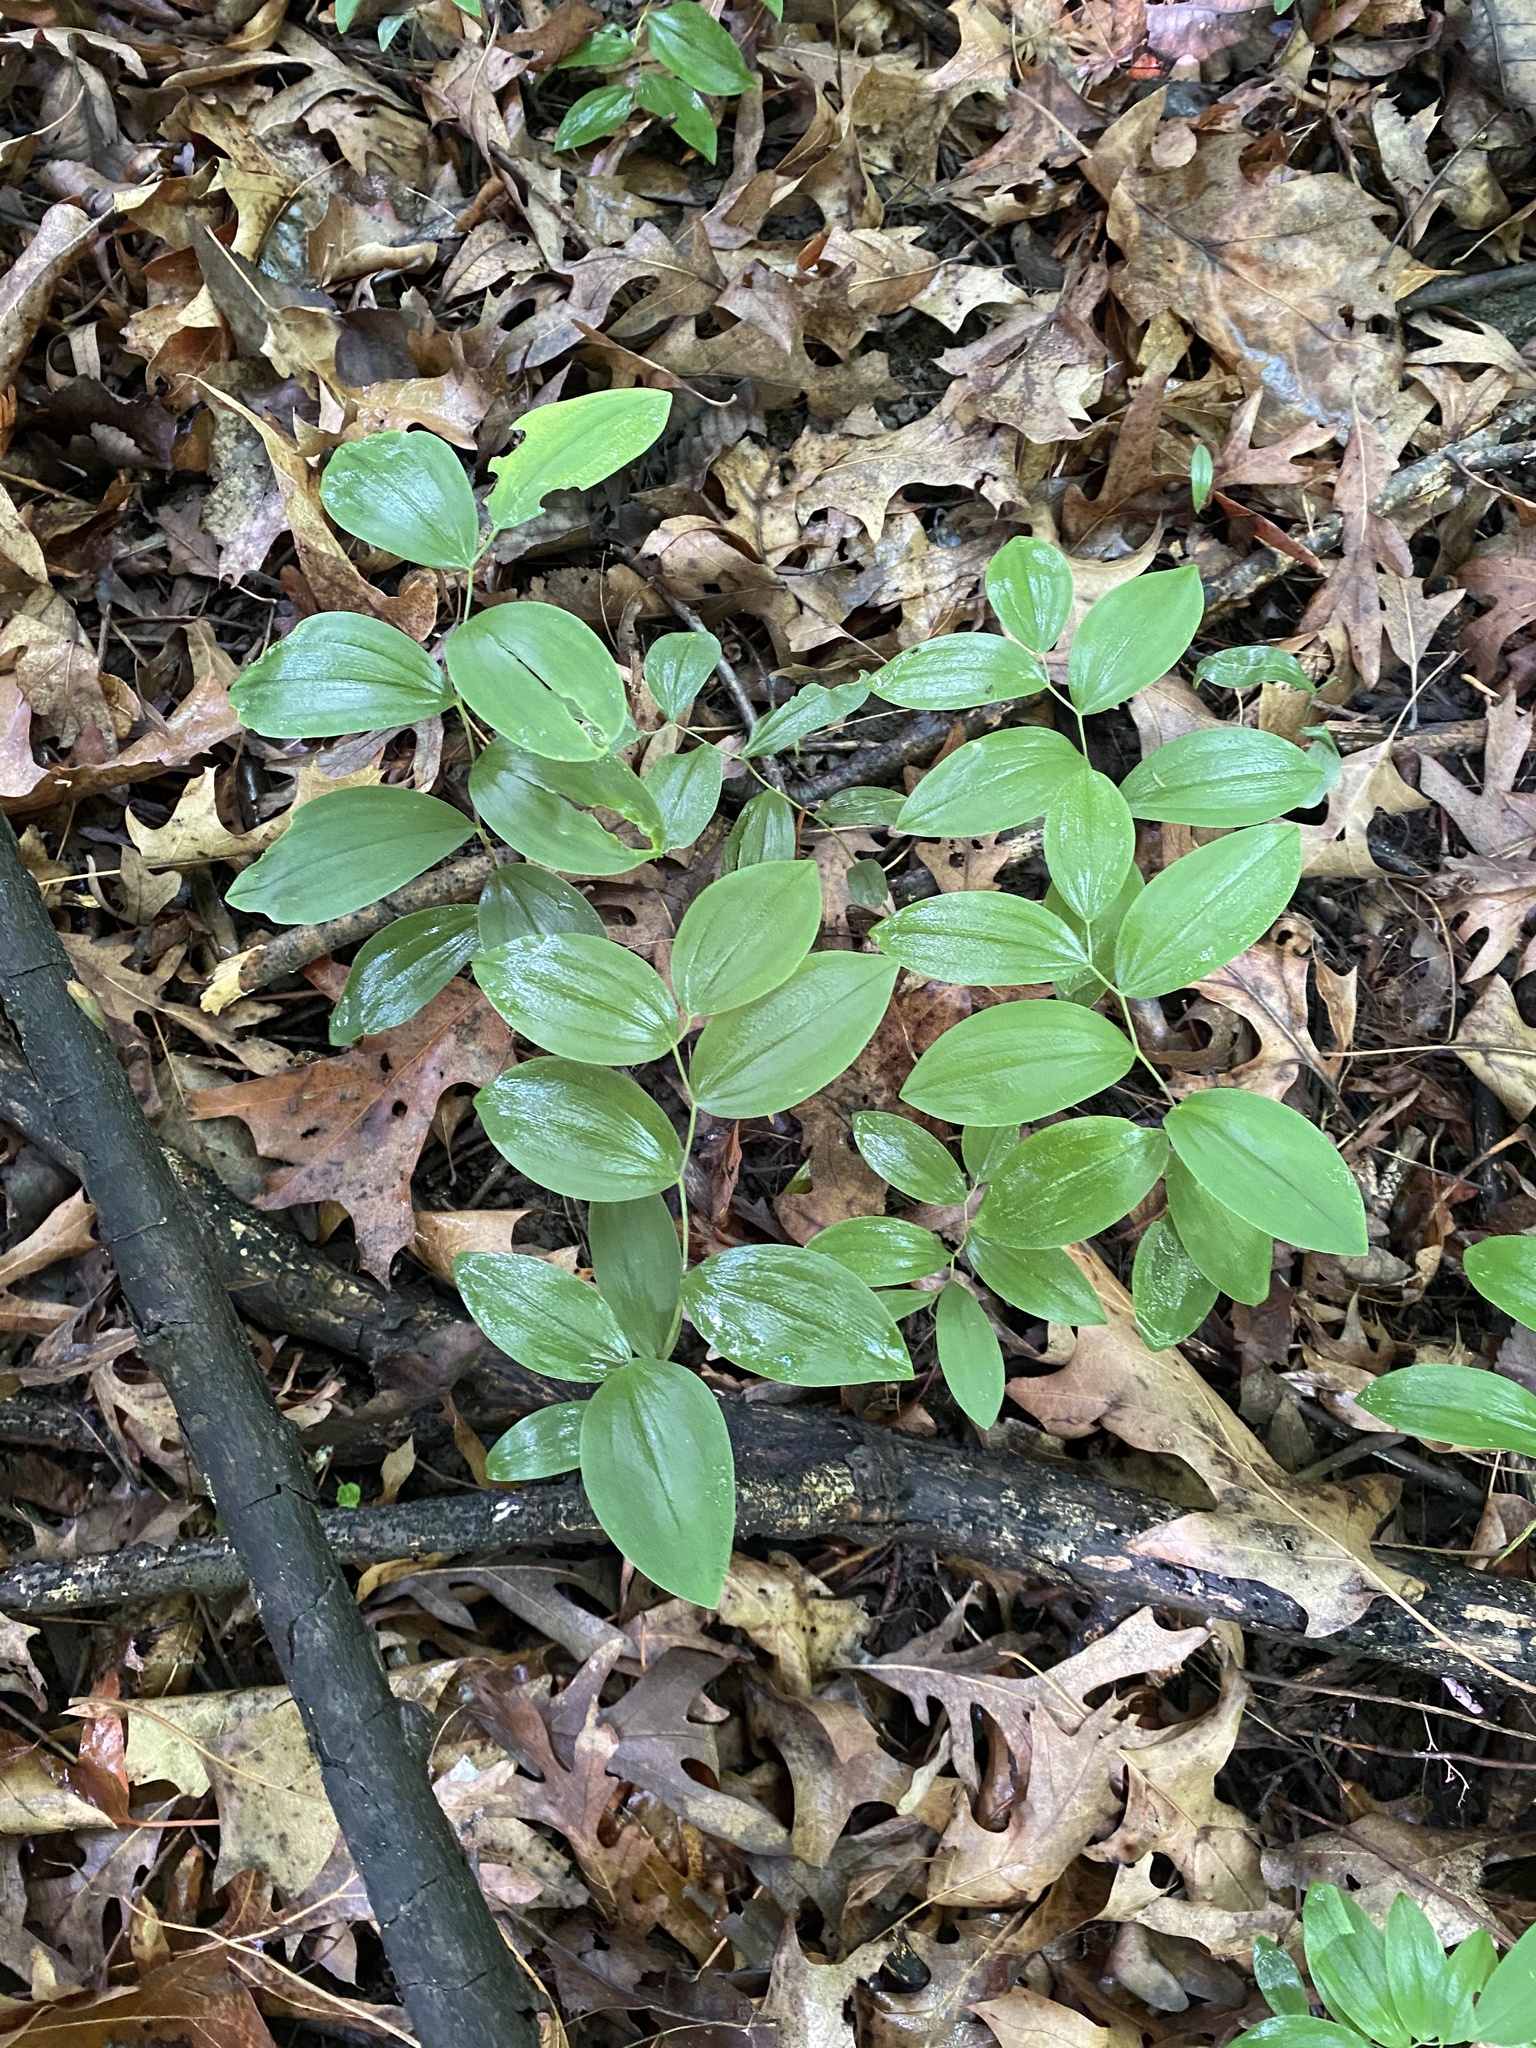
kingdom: Plantae
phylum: Tracheophyta
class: Liliopsida
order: Liliales
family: Colchicaceae
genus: Uvularia
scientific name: Uvularia sessilifolia
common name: Straw-lily
